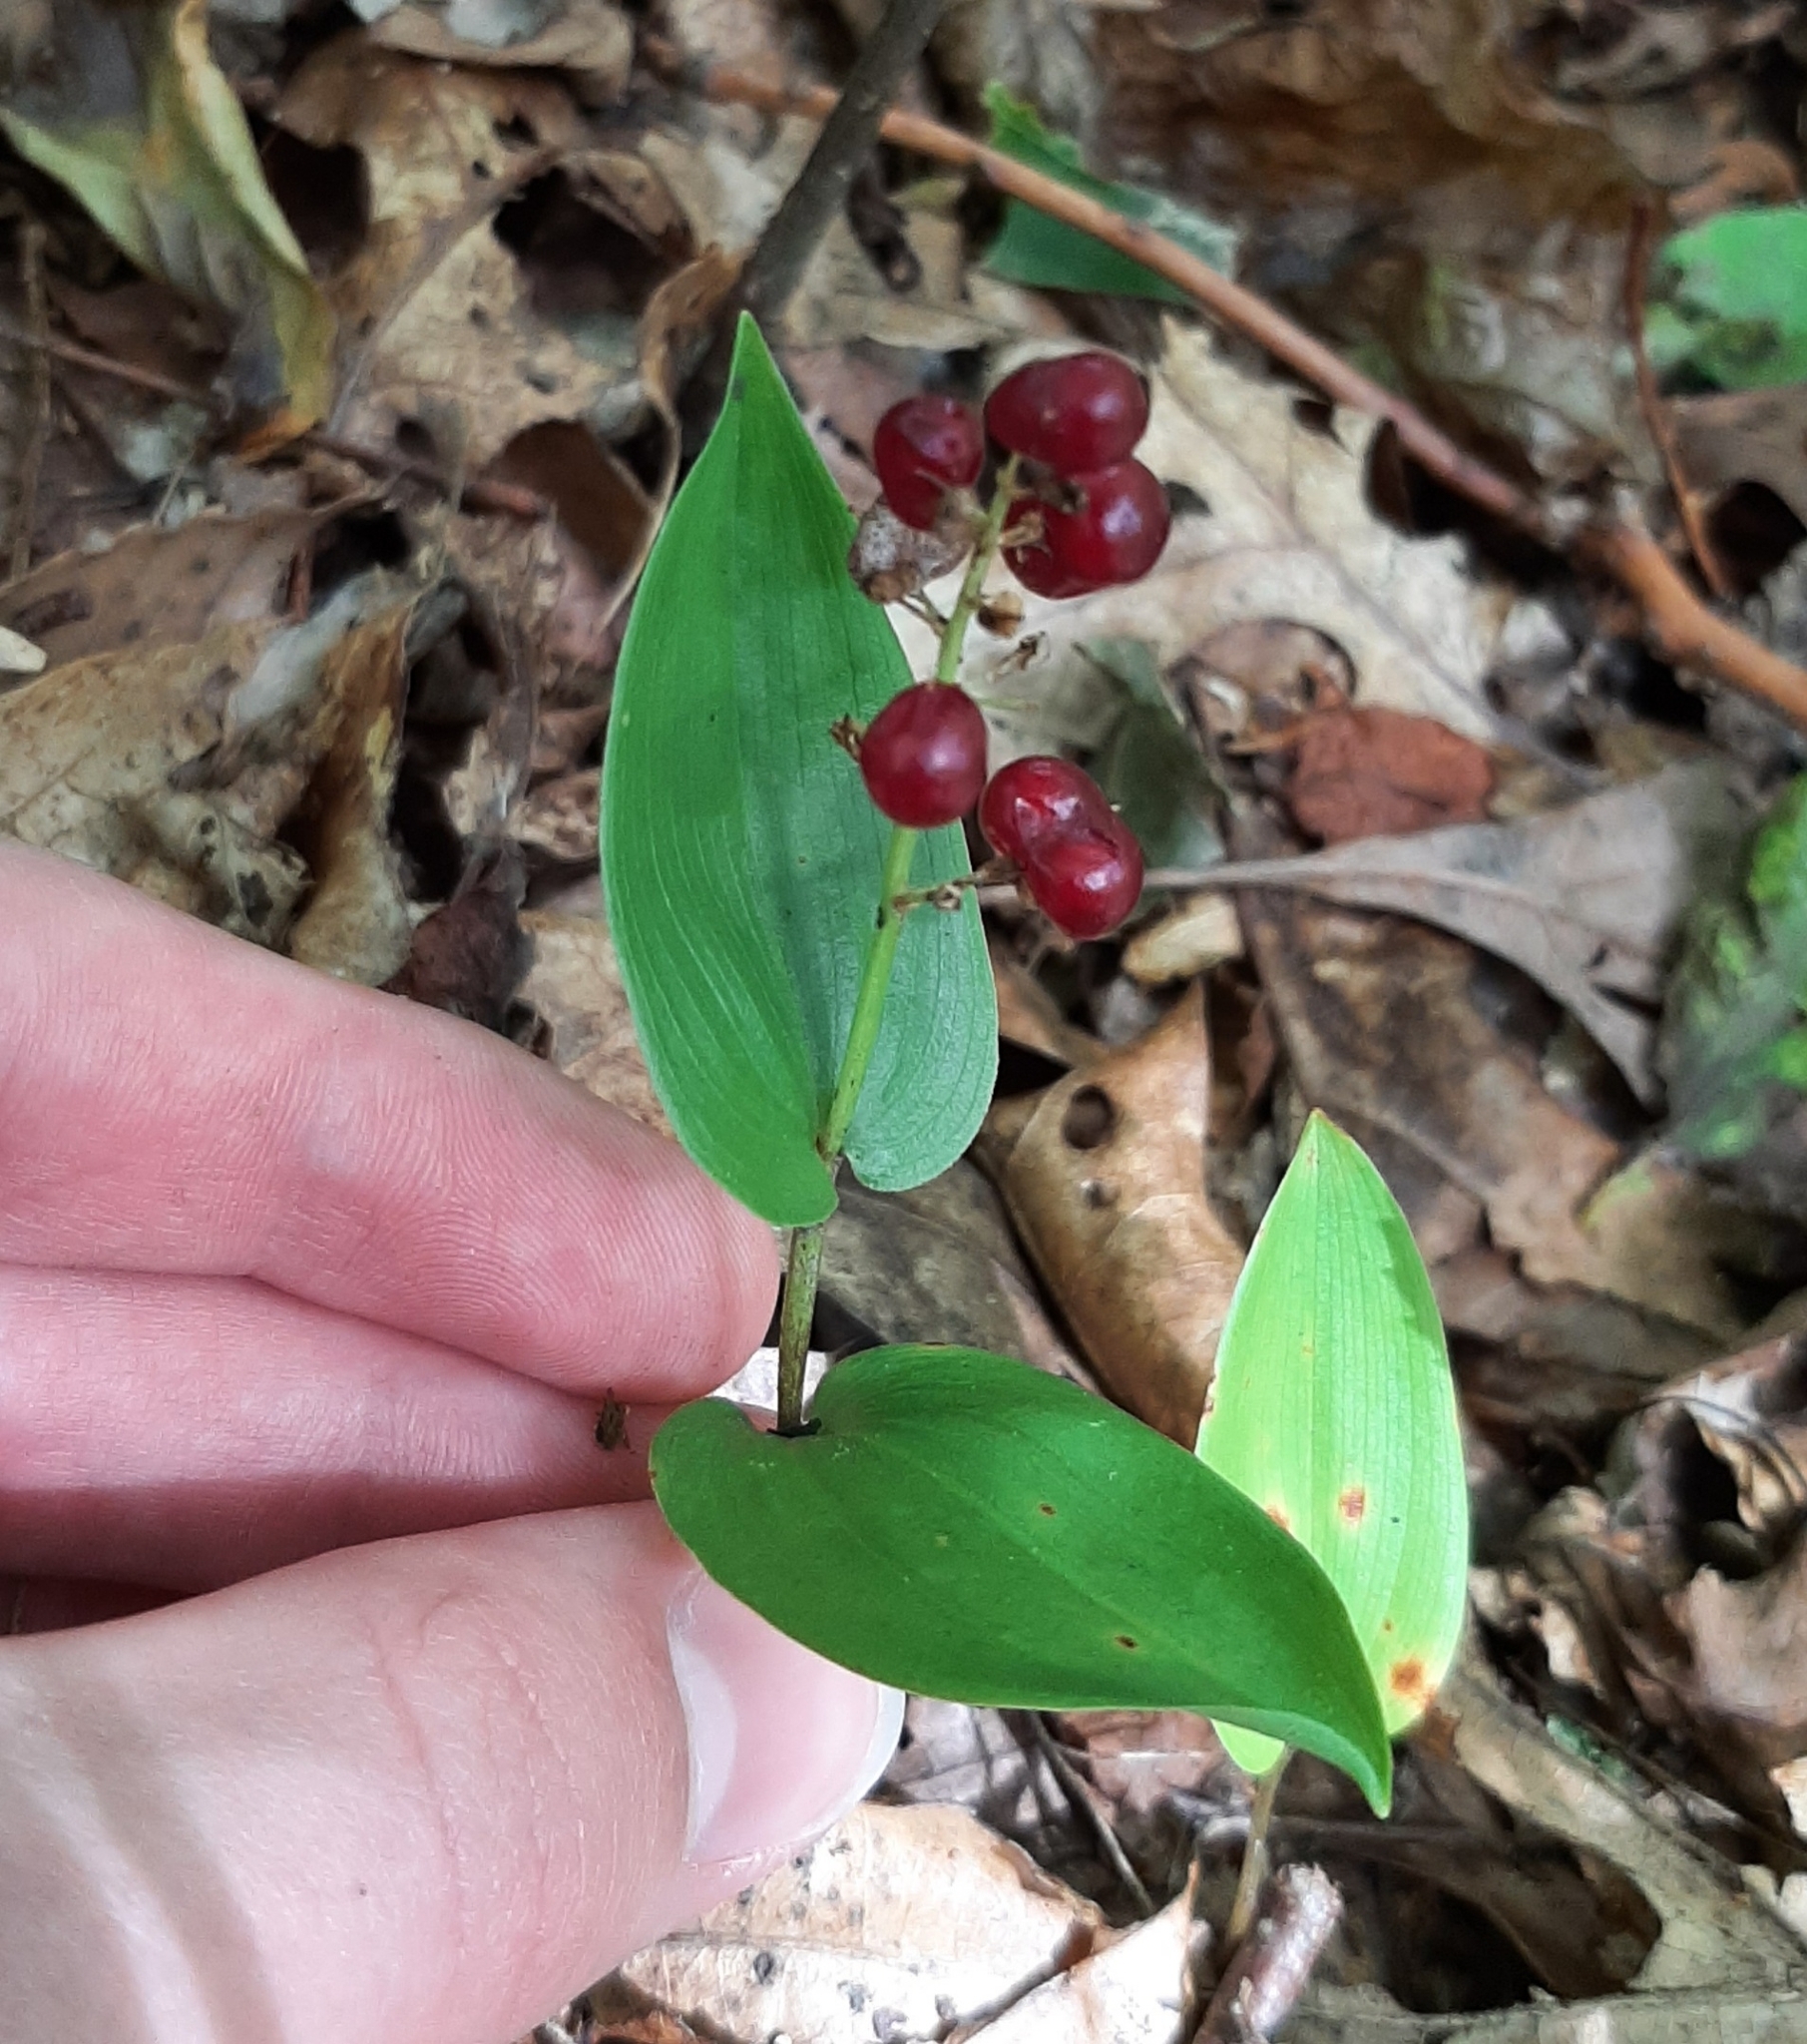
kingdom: Plantae
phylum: Tracheophyta
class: Liliopsida
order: Asparagales
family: Asparagaceae
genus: Maianthemum
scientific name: Maianthemum canadense
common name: False lily-of-the-valley
